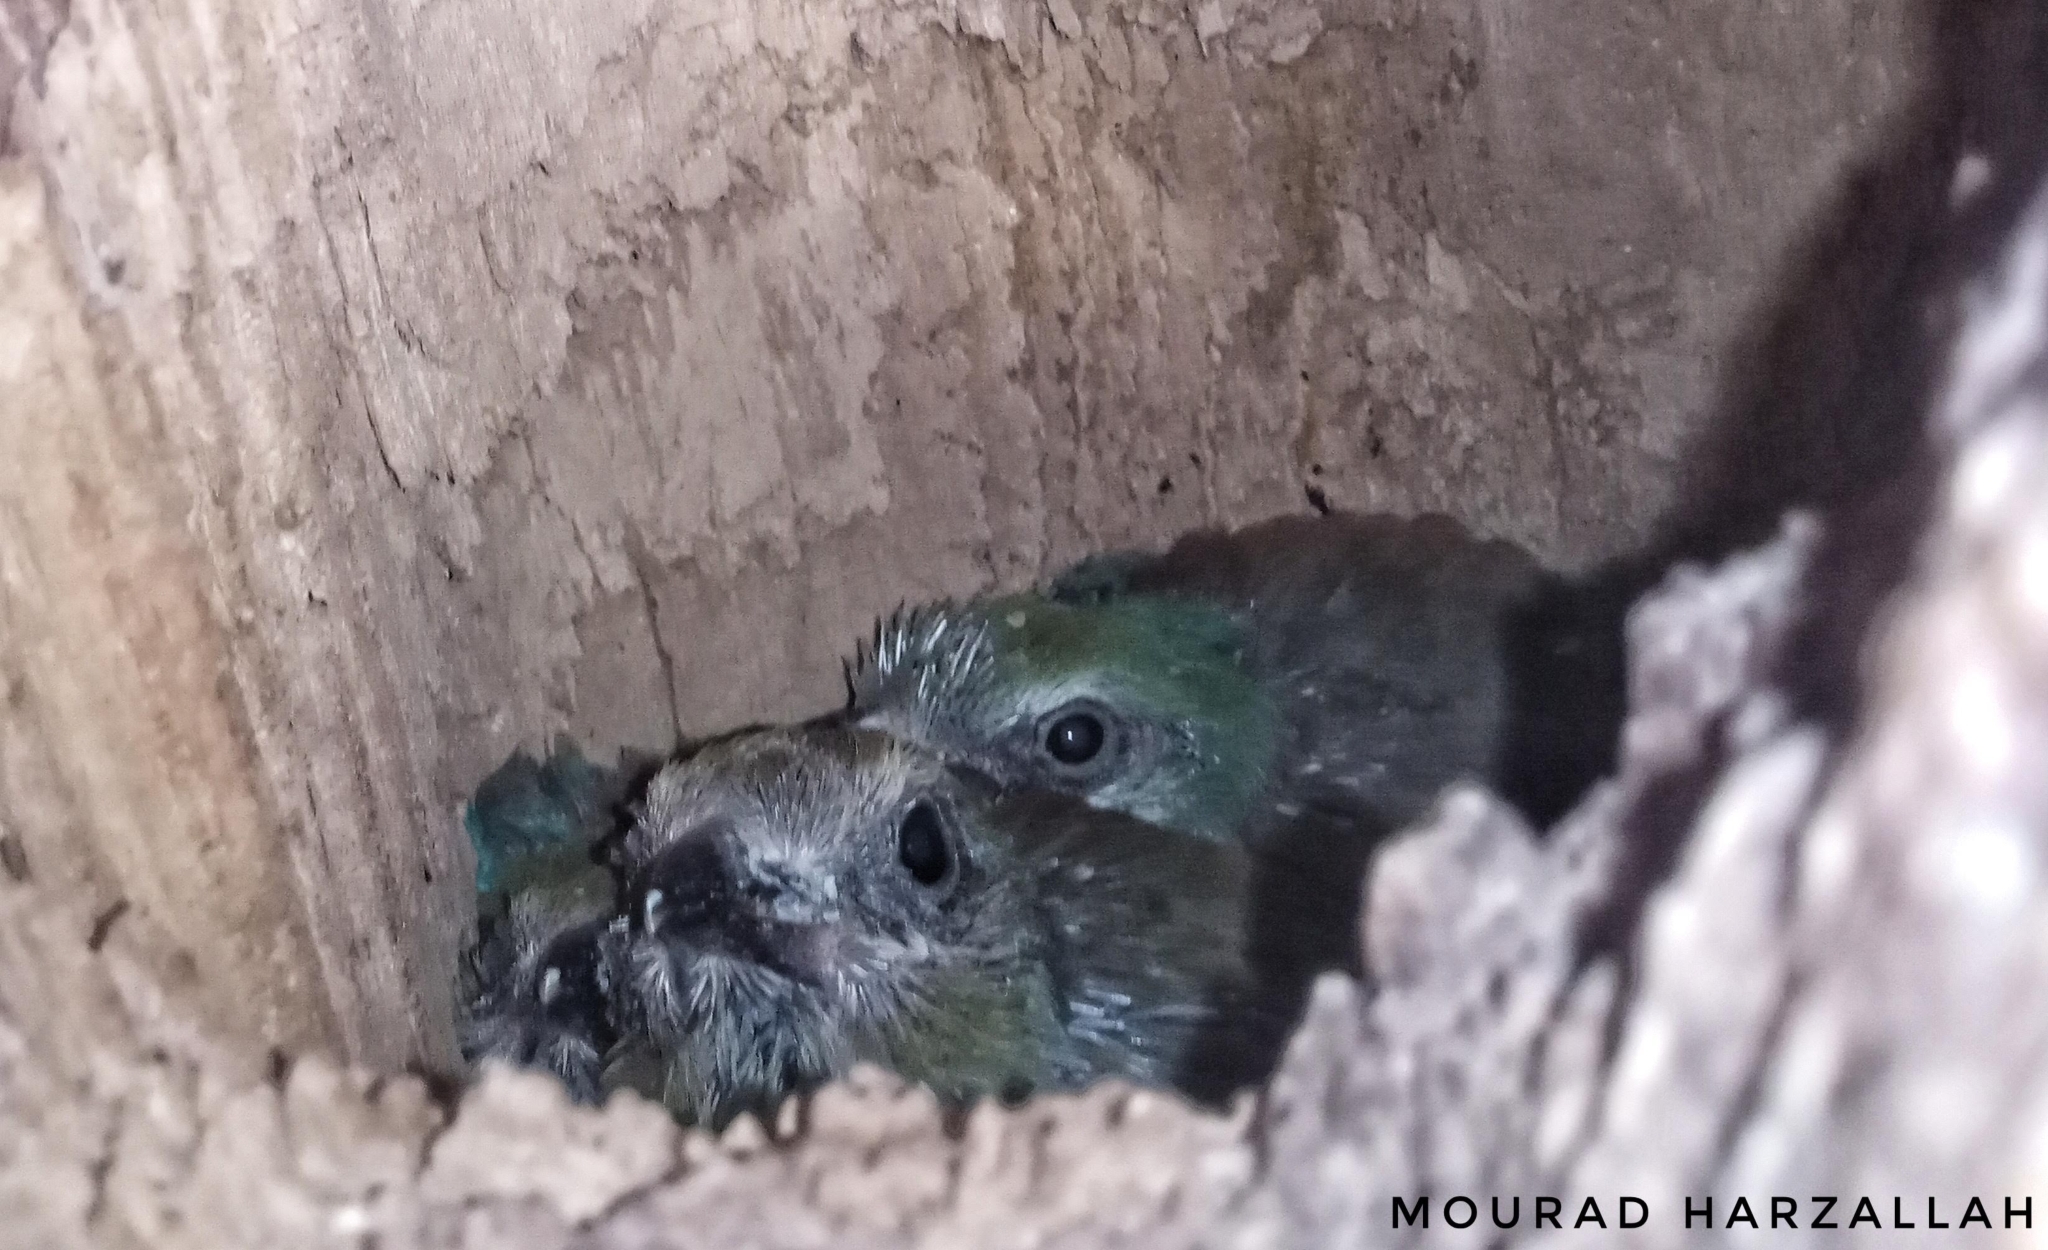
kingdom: Animalia
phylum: Chordata
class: Aves
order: Coraciiformes
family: Coraciidae
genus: Coracias
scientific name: Coracias garrulus
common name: European roller
